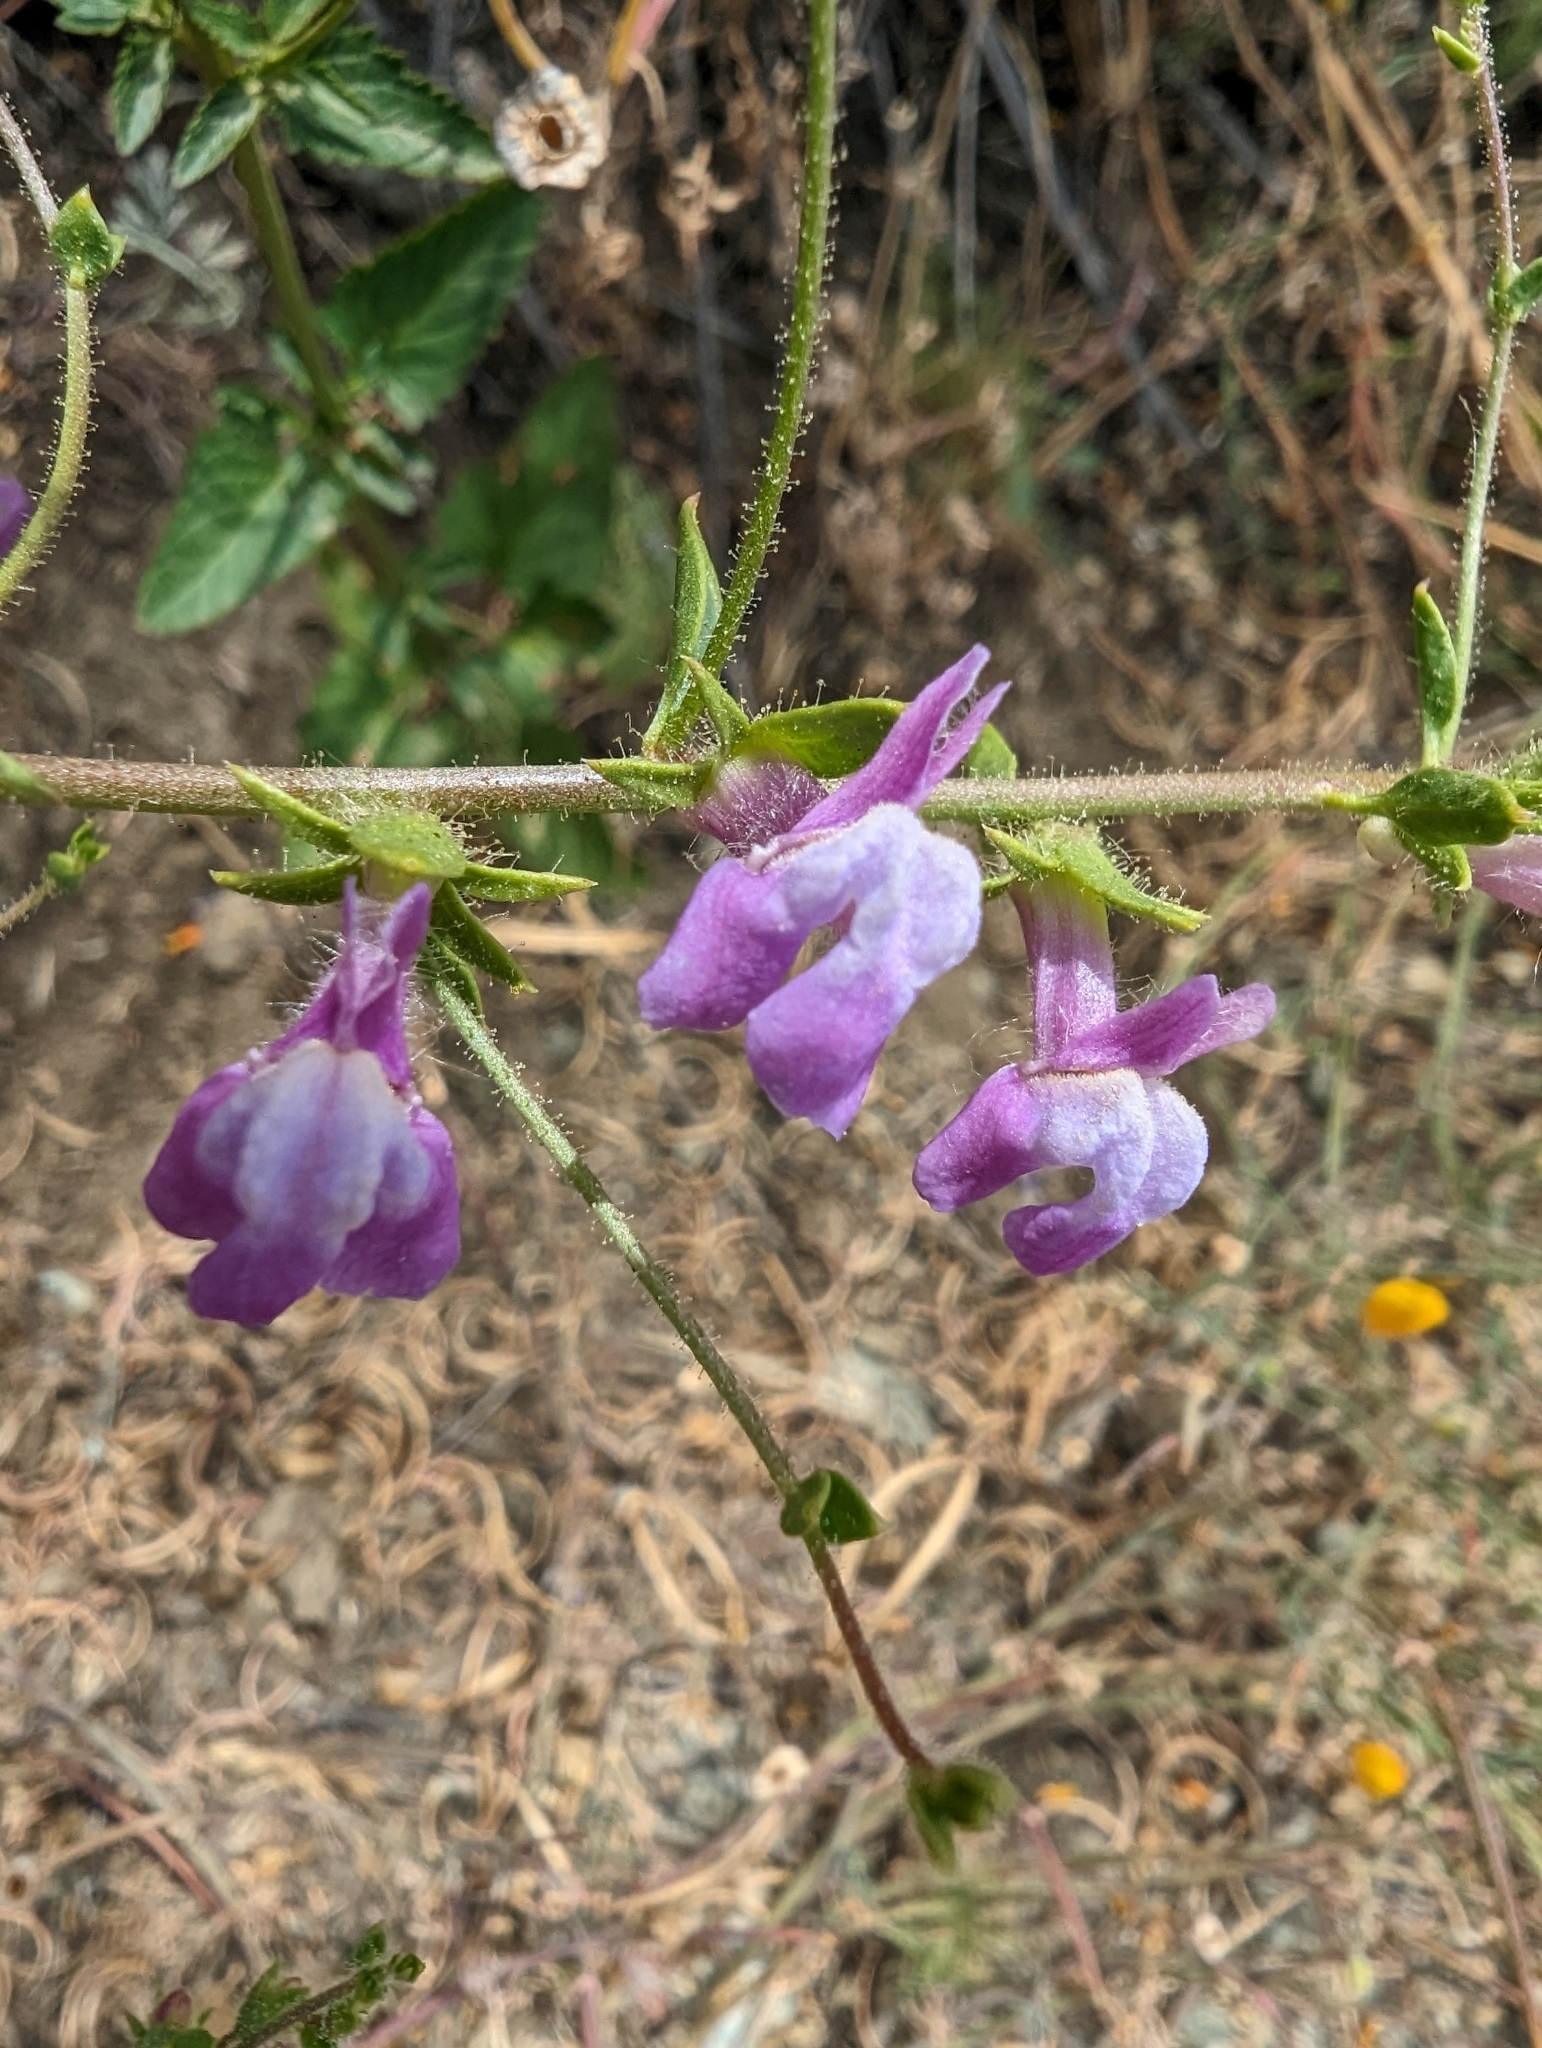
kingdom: Plantae
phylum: Tracheophyta
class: Magnoliopsida
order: Lamiales
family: Plantaginaceae
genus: Sairocarpus
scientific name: Sairocarpus vexillocalyculatus
